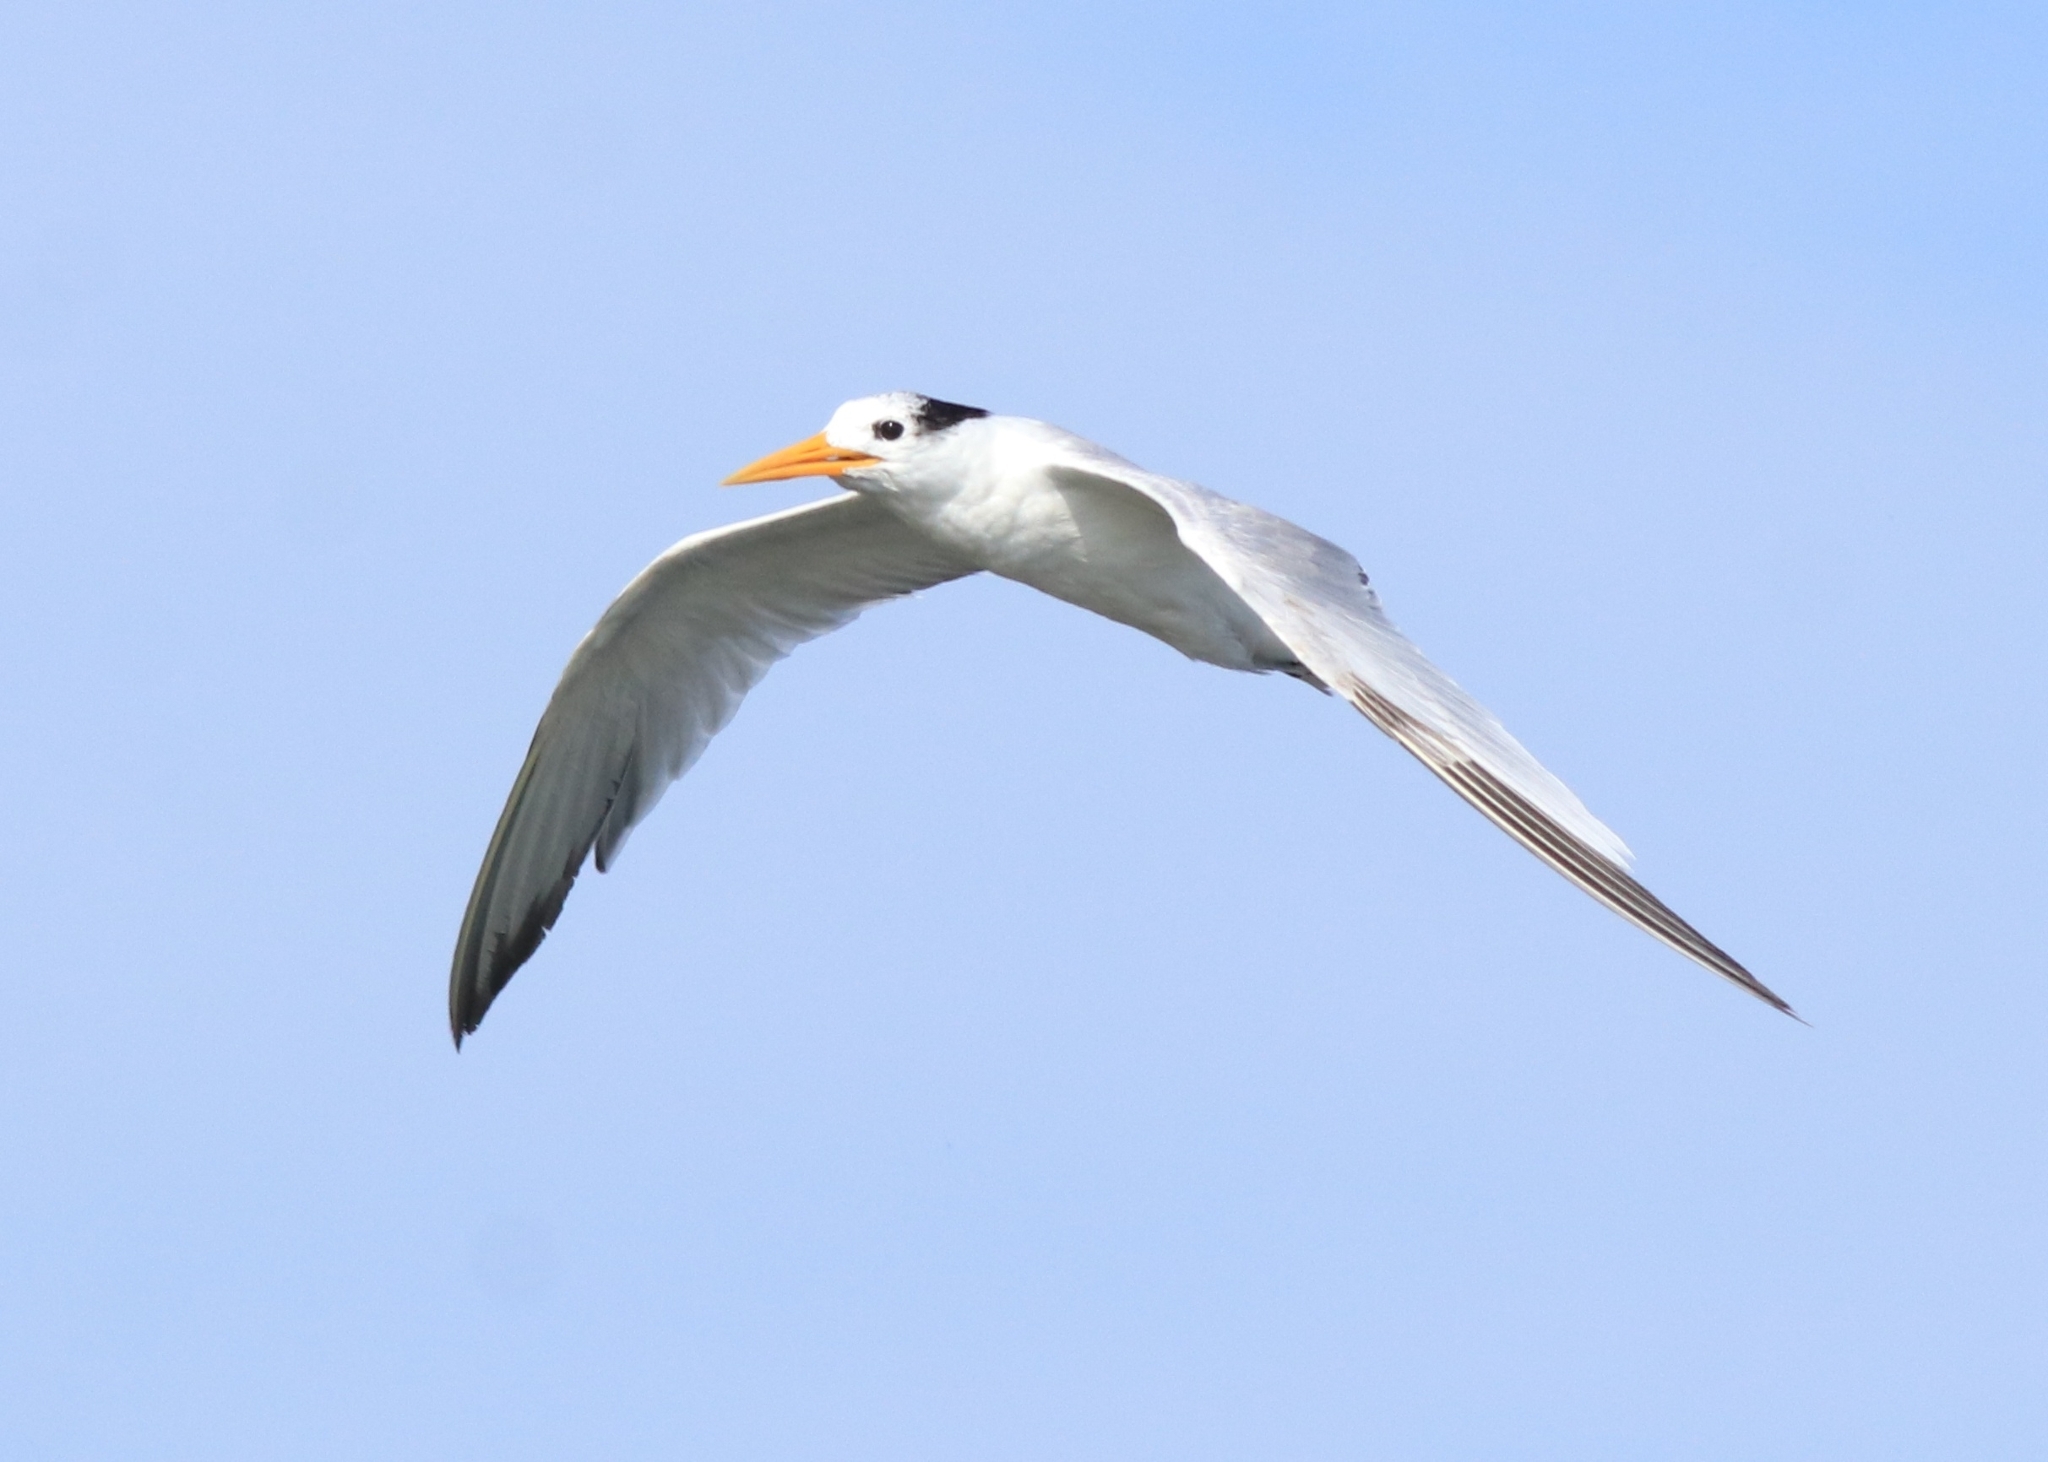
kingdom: Animalia
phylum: Chordata
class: Aves
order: Charadriiformes
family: Laridae
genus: Thalasseus
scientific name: Thalasseus bengalensis
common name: Lesser crested tern
